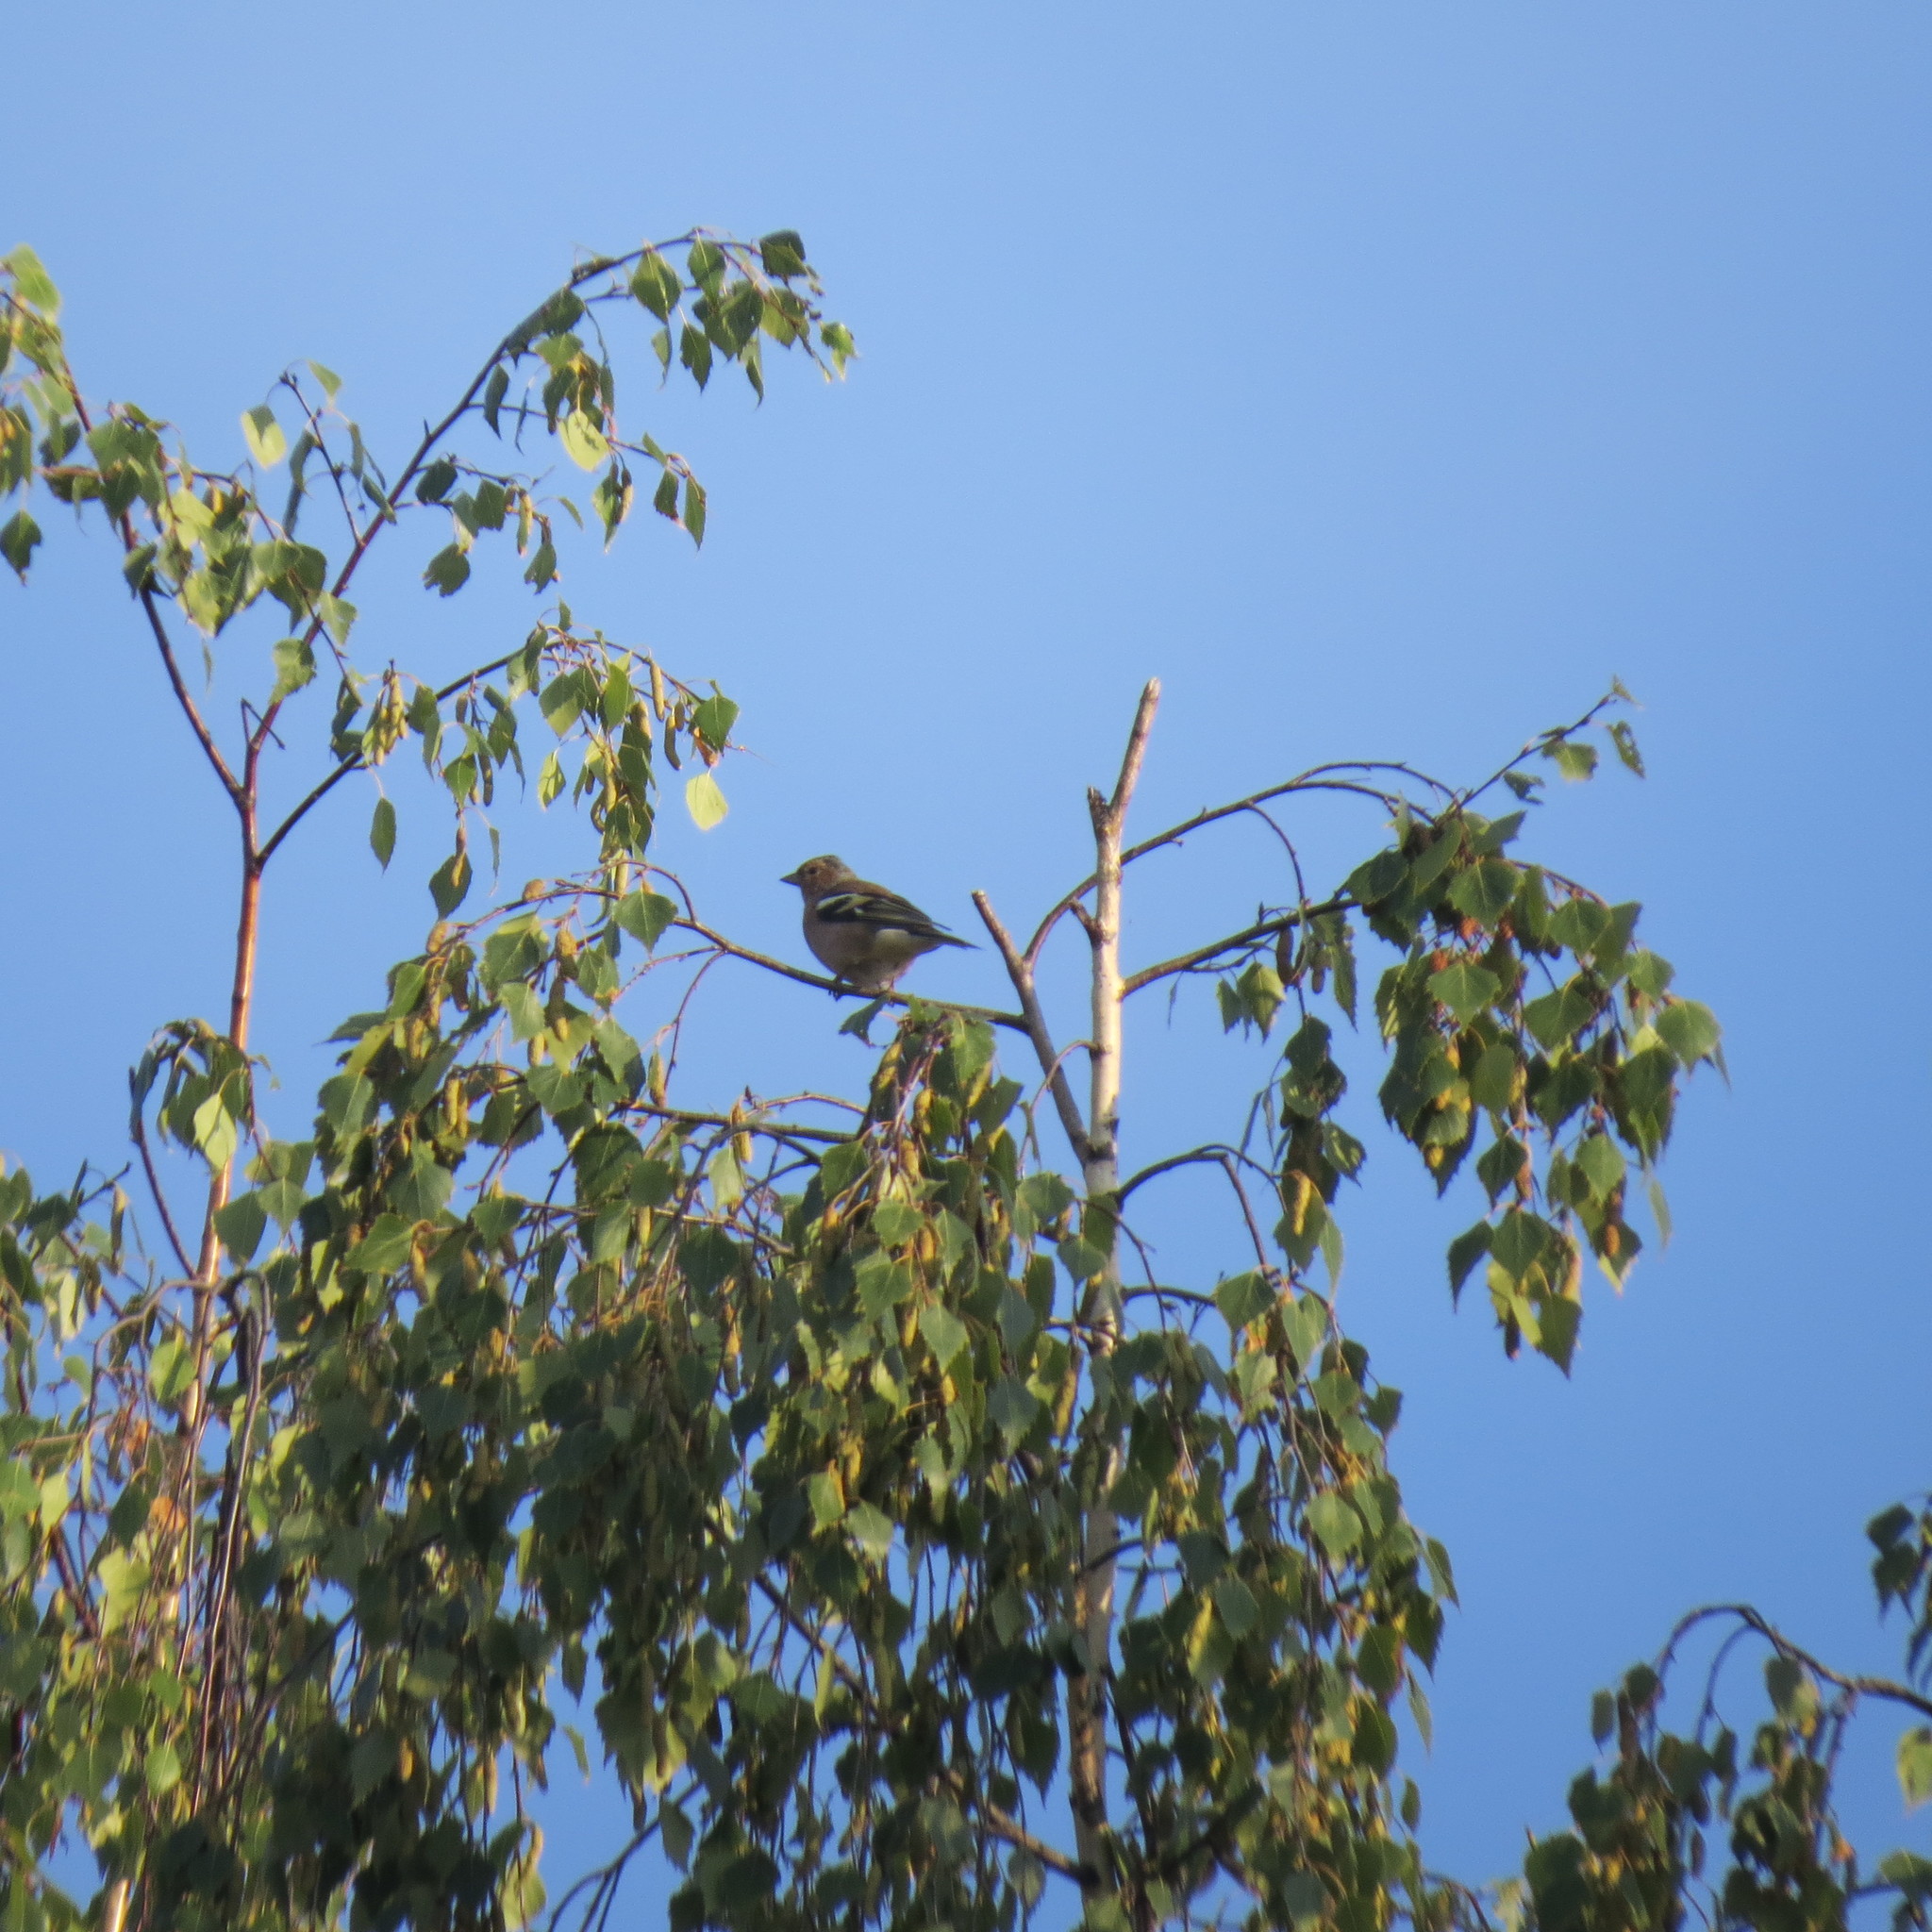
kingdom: Animalia
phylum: Chordata
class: Aves
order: Passeriformes
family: Fringillidae
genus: Fringilla
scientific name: Fringilla coelebs
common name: Common chaffinch
